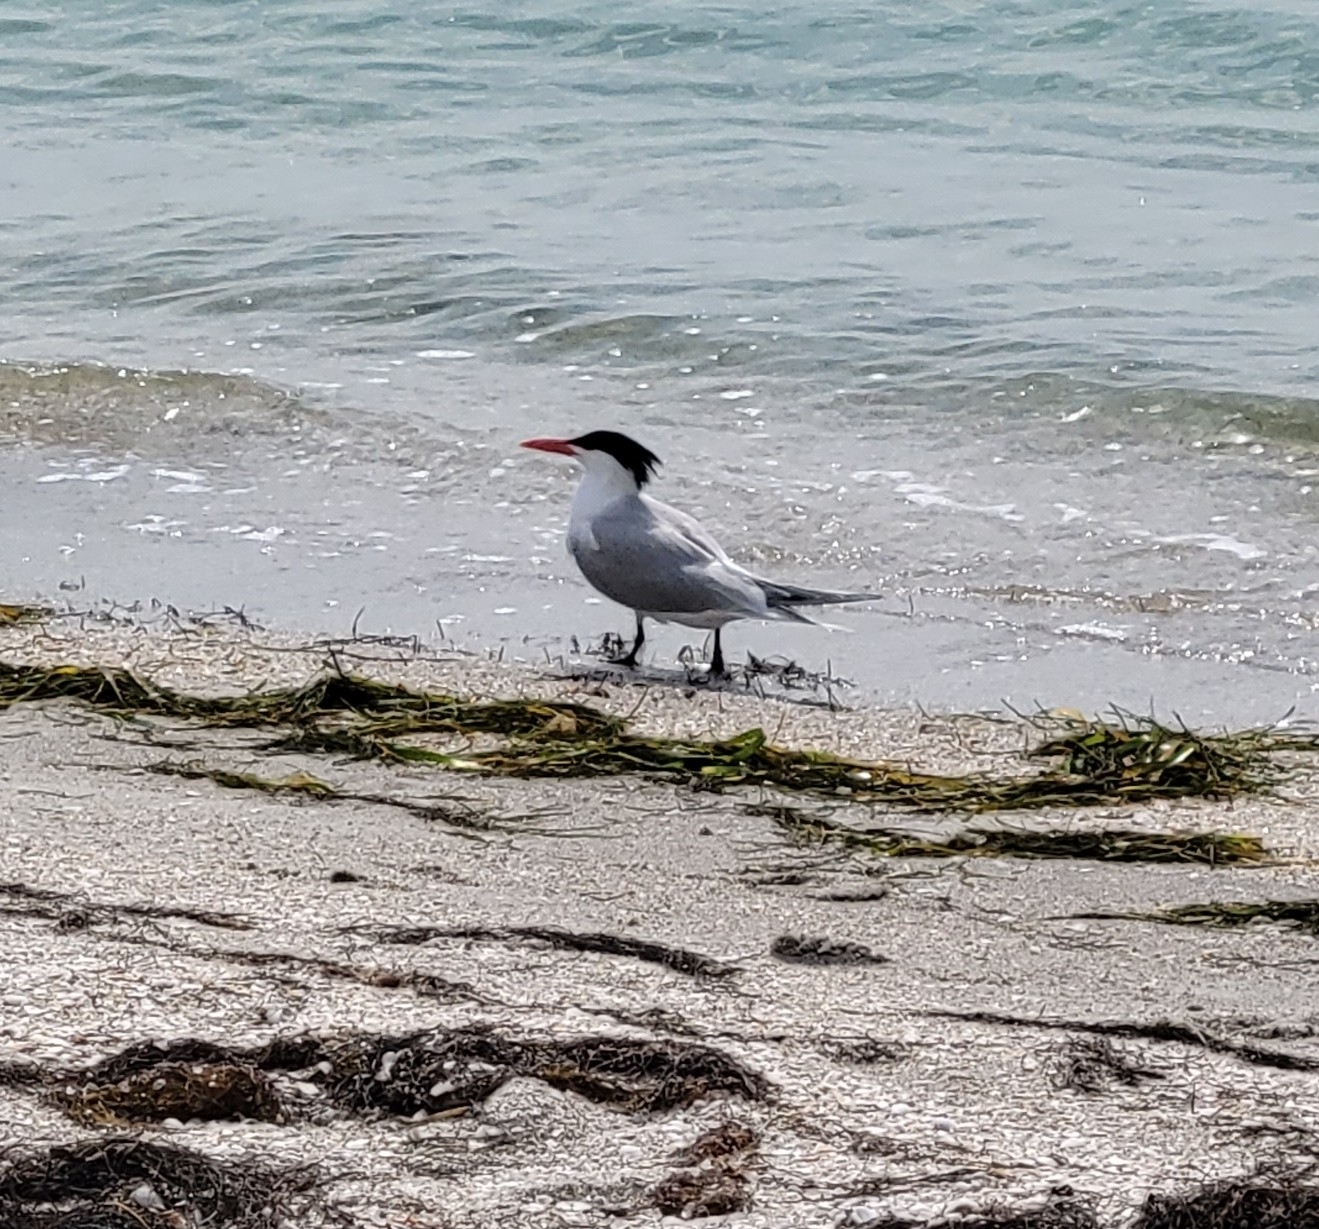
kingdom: Animalia
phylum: Chordata
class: Aves
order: Charadriiformes
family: Laridae
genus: Thalasseus
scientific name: Thalasseus maximus
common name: Royal tern
